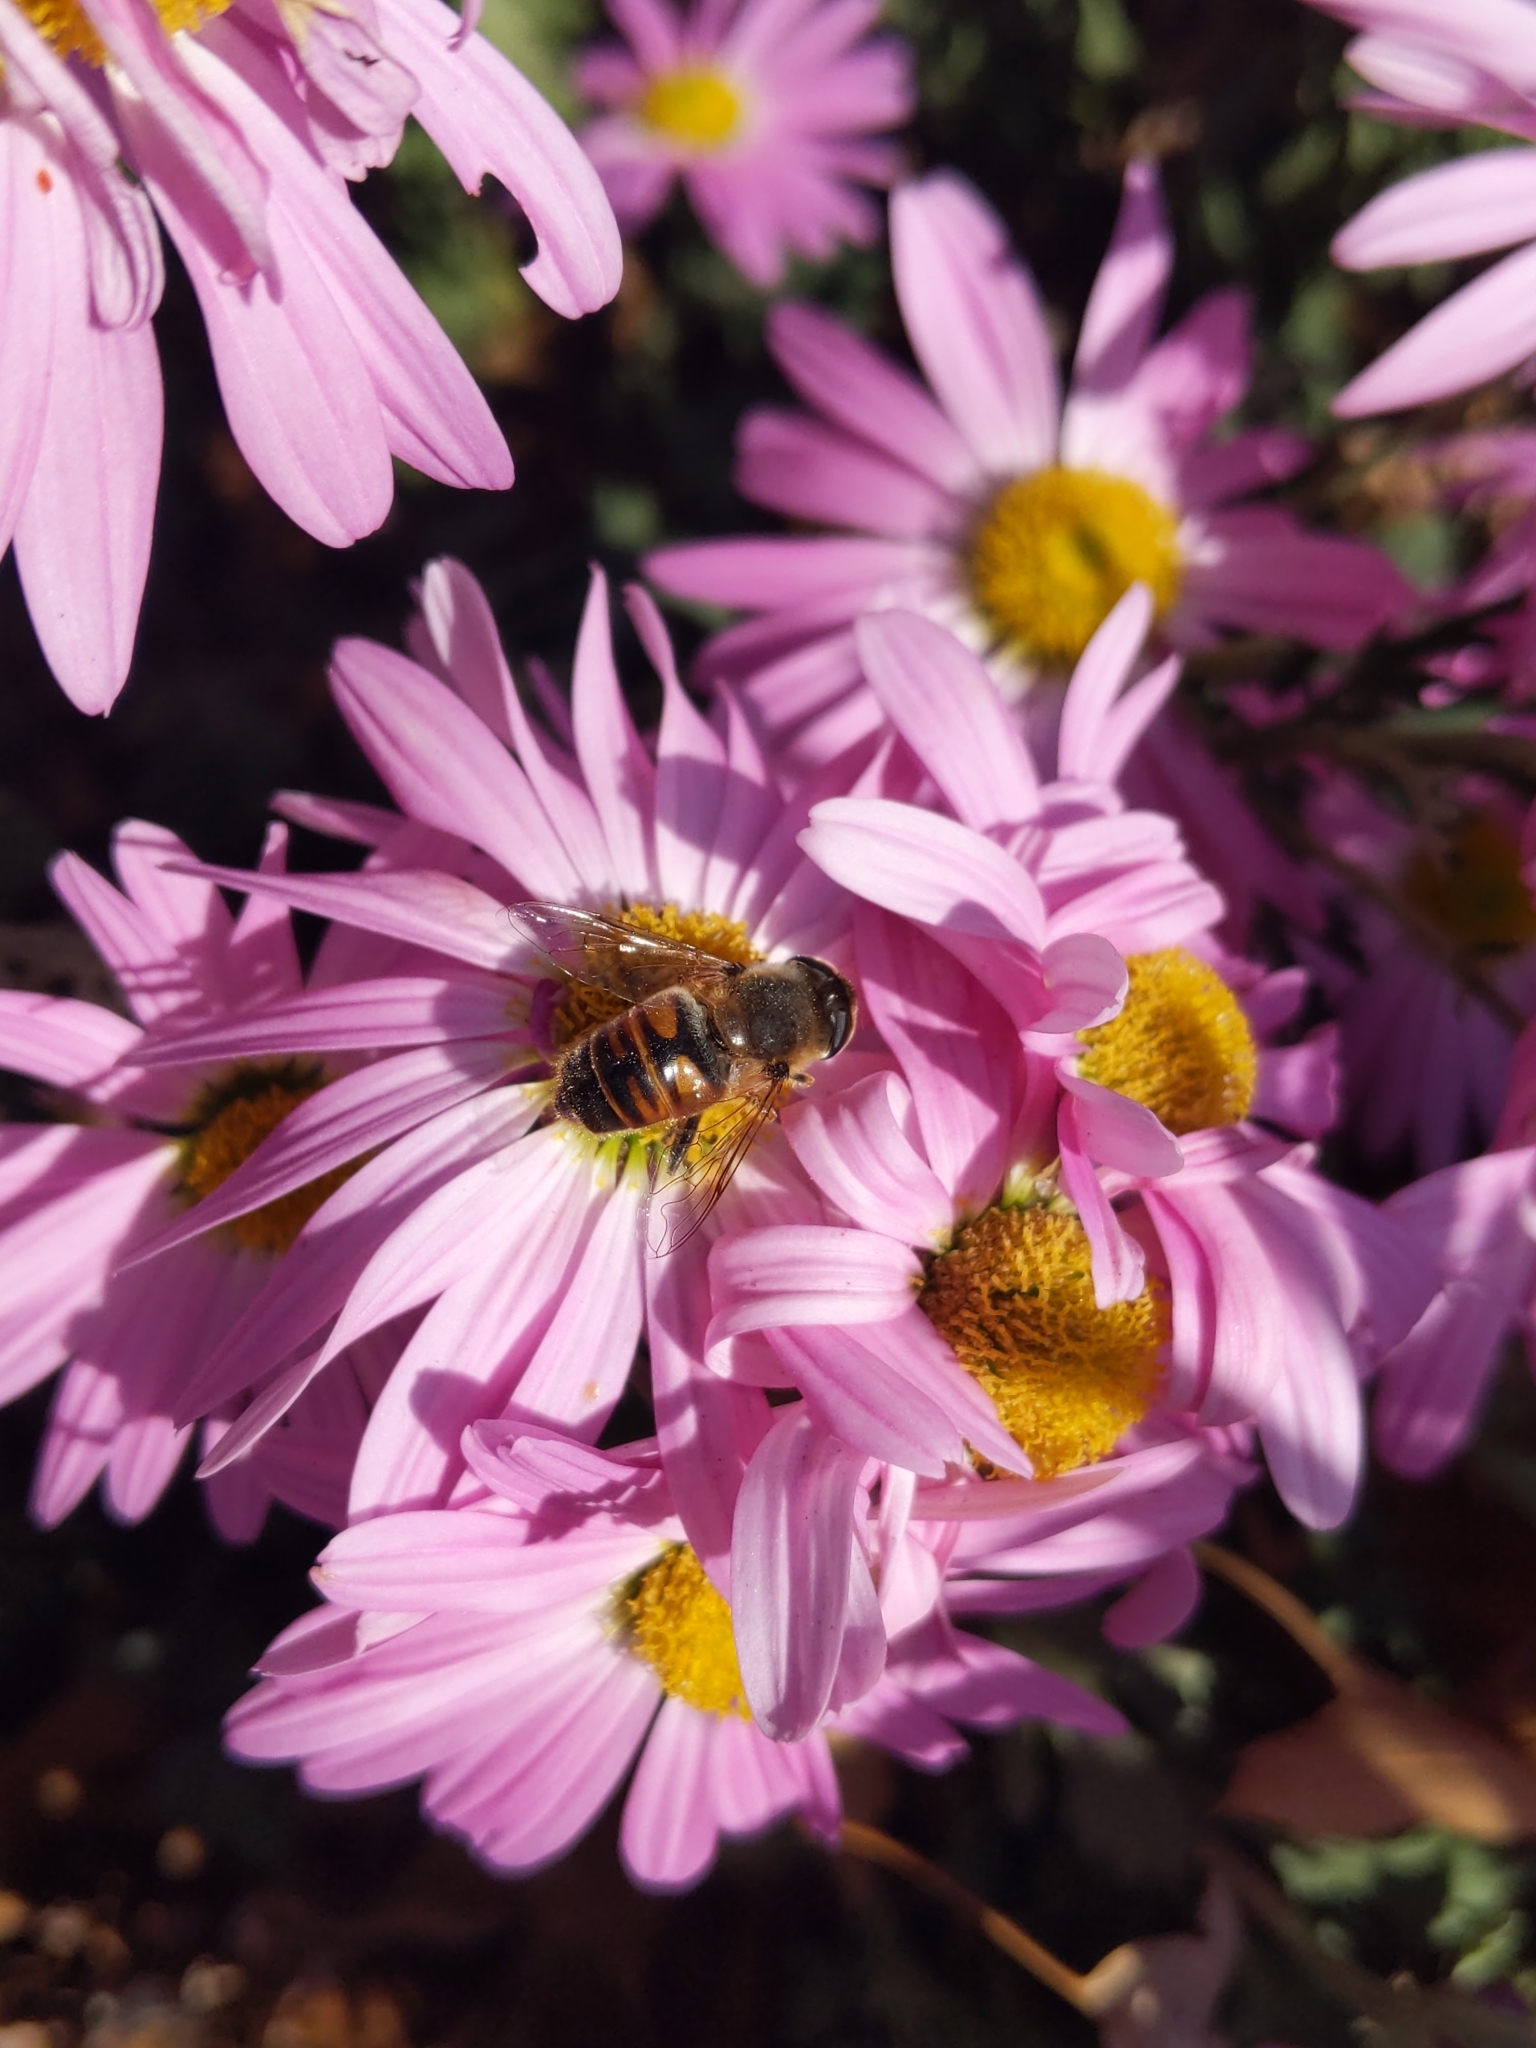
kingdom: Animalia
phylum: Arthropoda
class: Insecta
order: Diptera
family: Syrphidae
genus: Eristalis
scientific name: Eristalis tenax
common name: Drone fly
